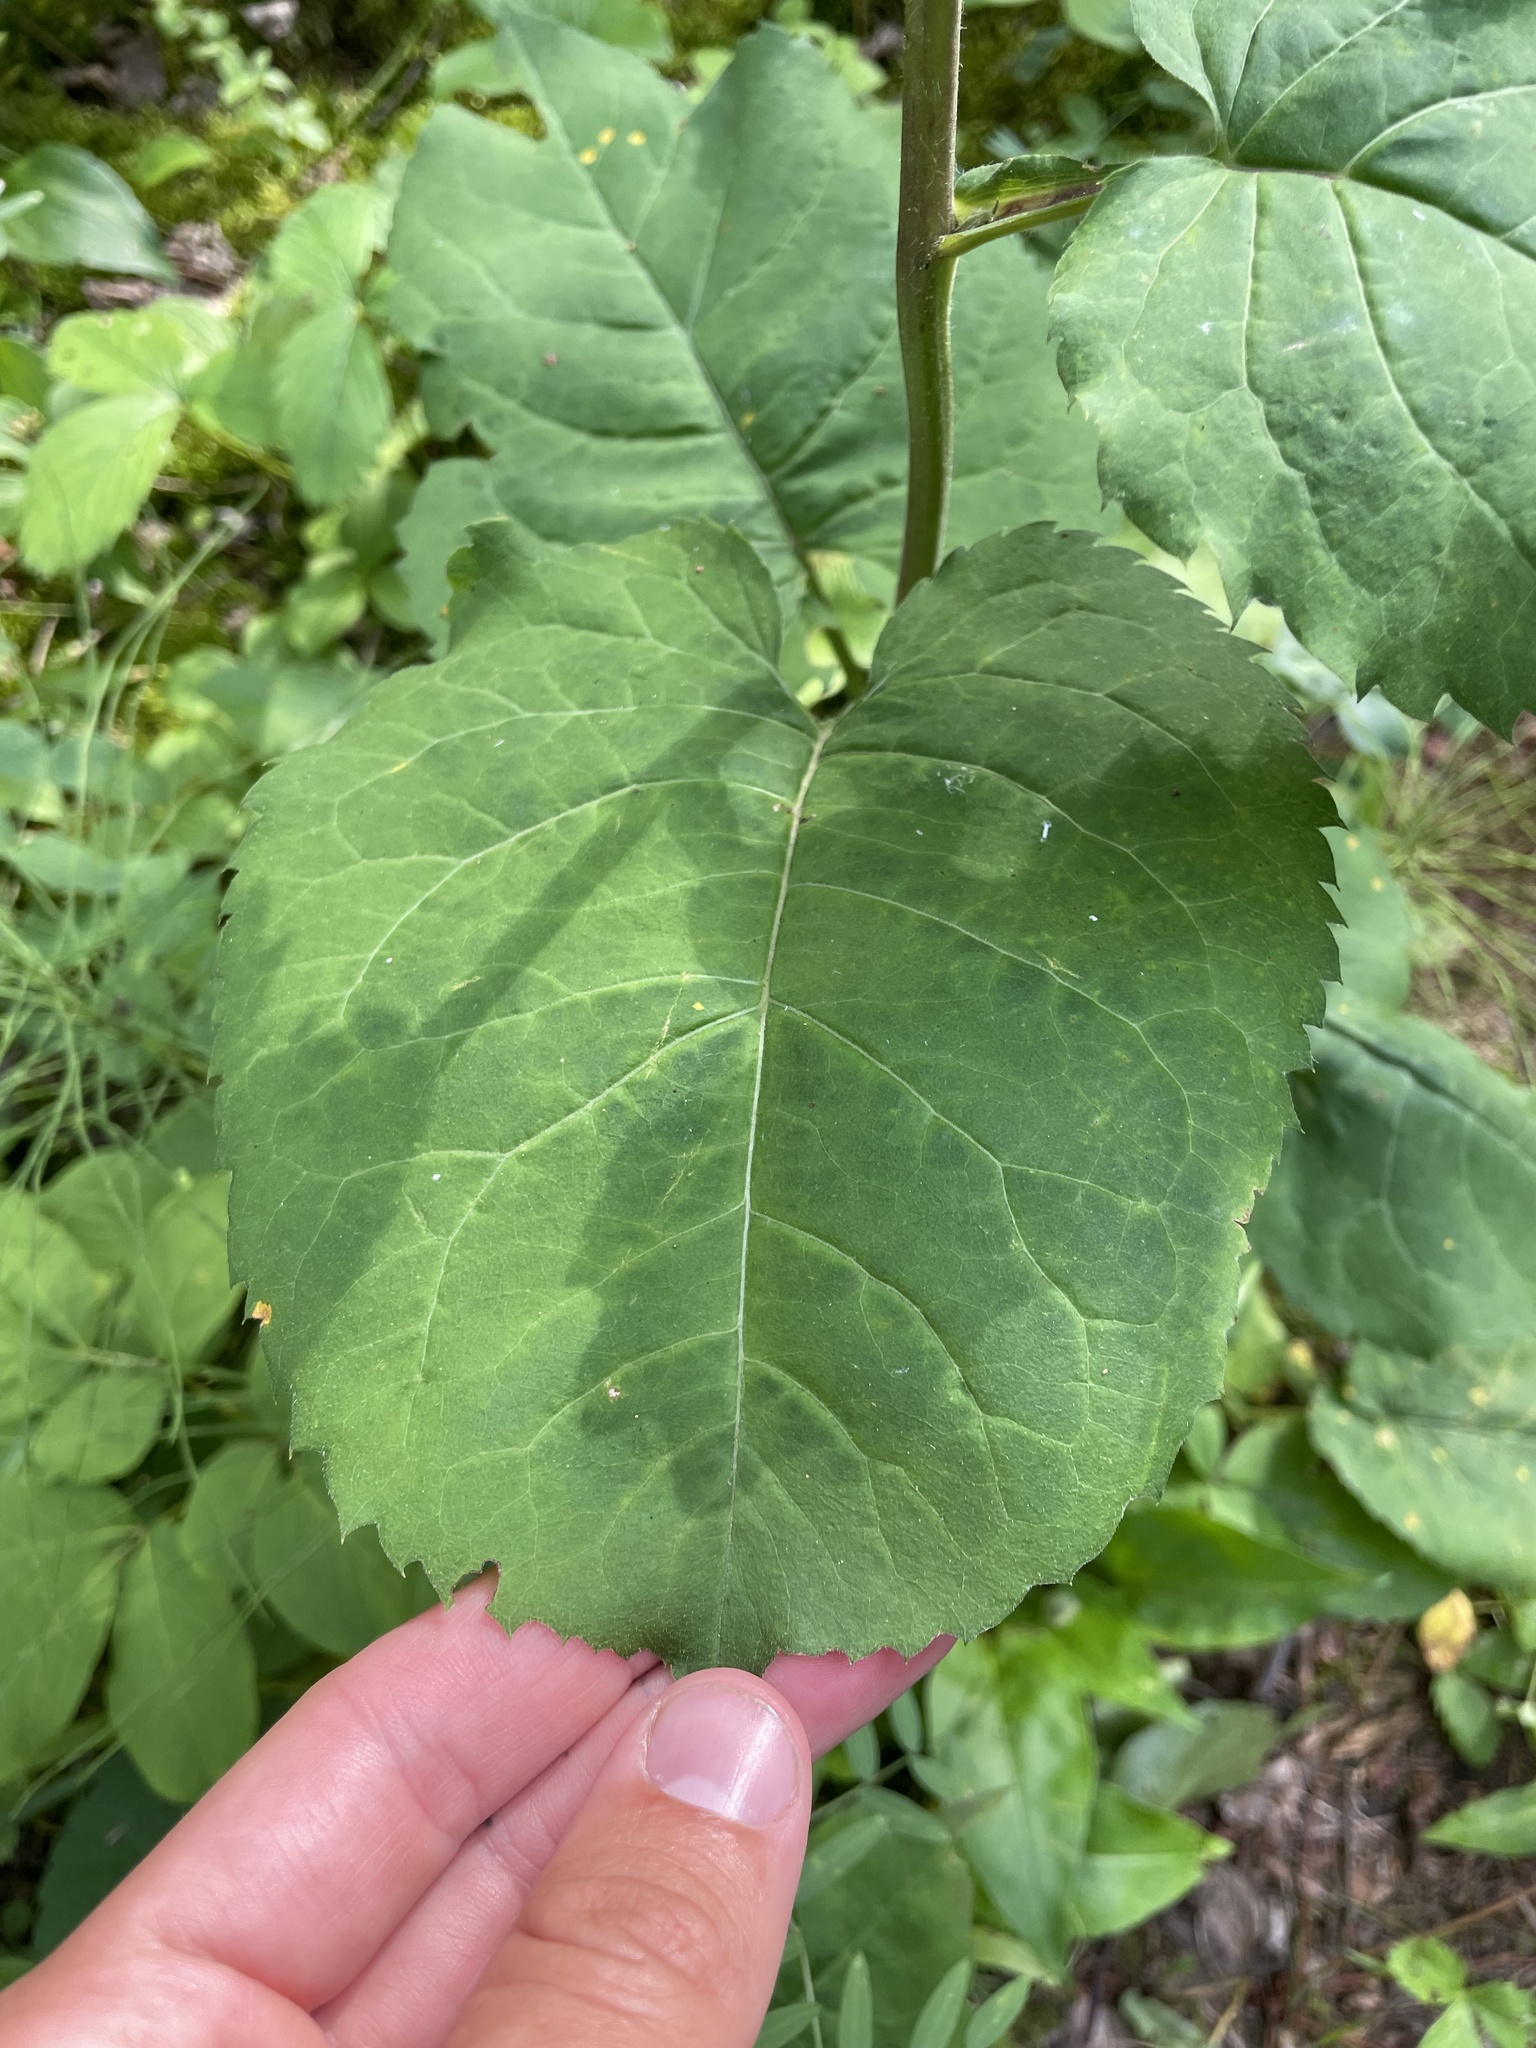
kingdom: Plantae
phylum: Tracheophyta
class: Magnoliopsida
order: Asterales
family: Asteraceae
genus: Eurybia
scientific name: Eurybia macrophylla
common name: Big-leaved aster
